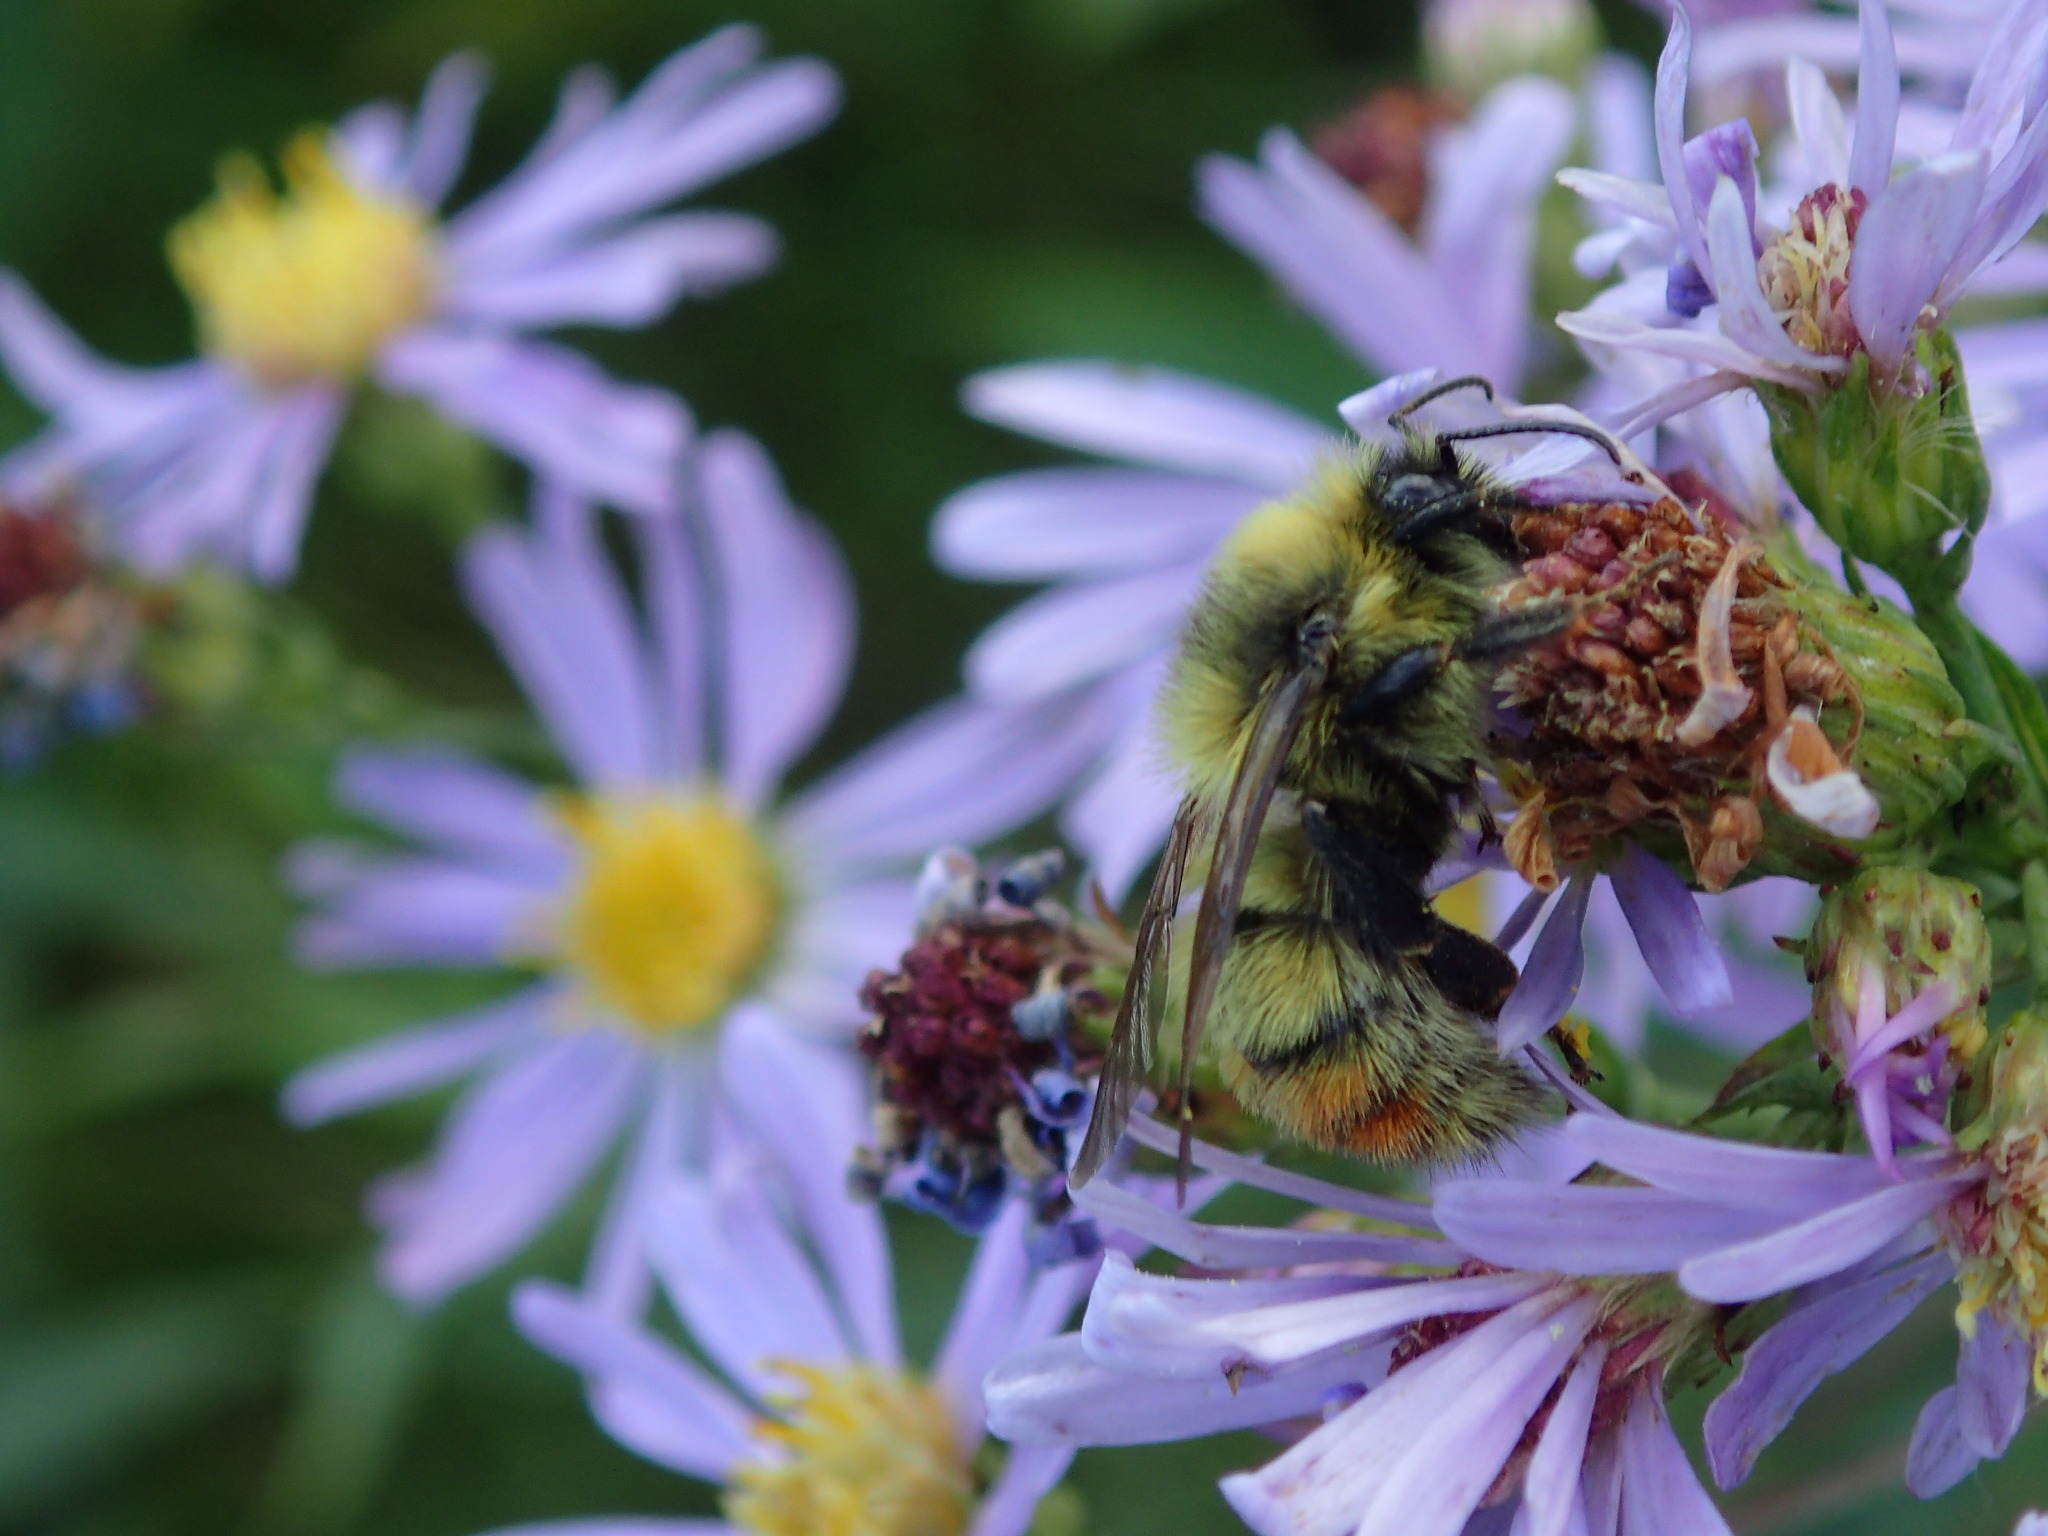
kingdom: Animalia
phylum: Arthropoda
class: Insecta
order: Hymenoptera
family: Apidae
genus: Bombus
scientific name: Bombus rufocinctus
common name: Red-belted bumble bee
